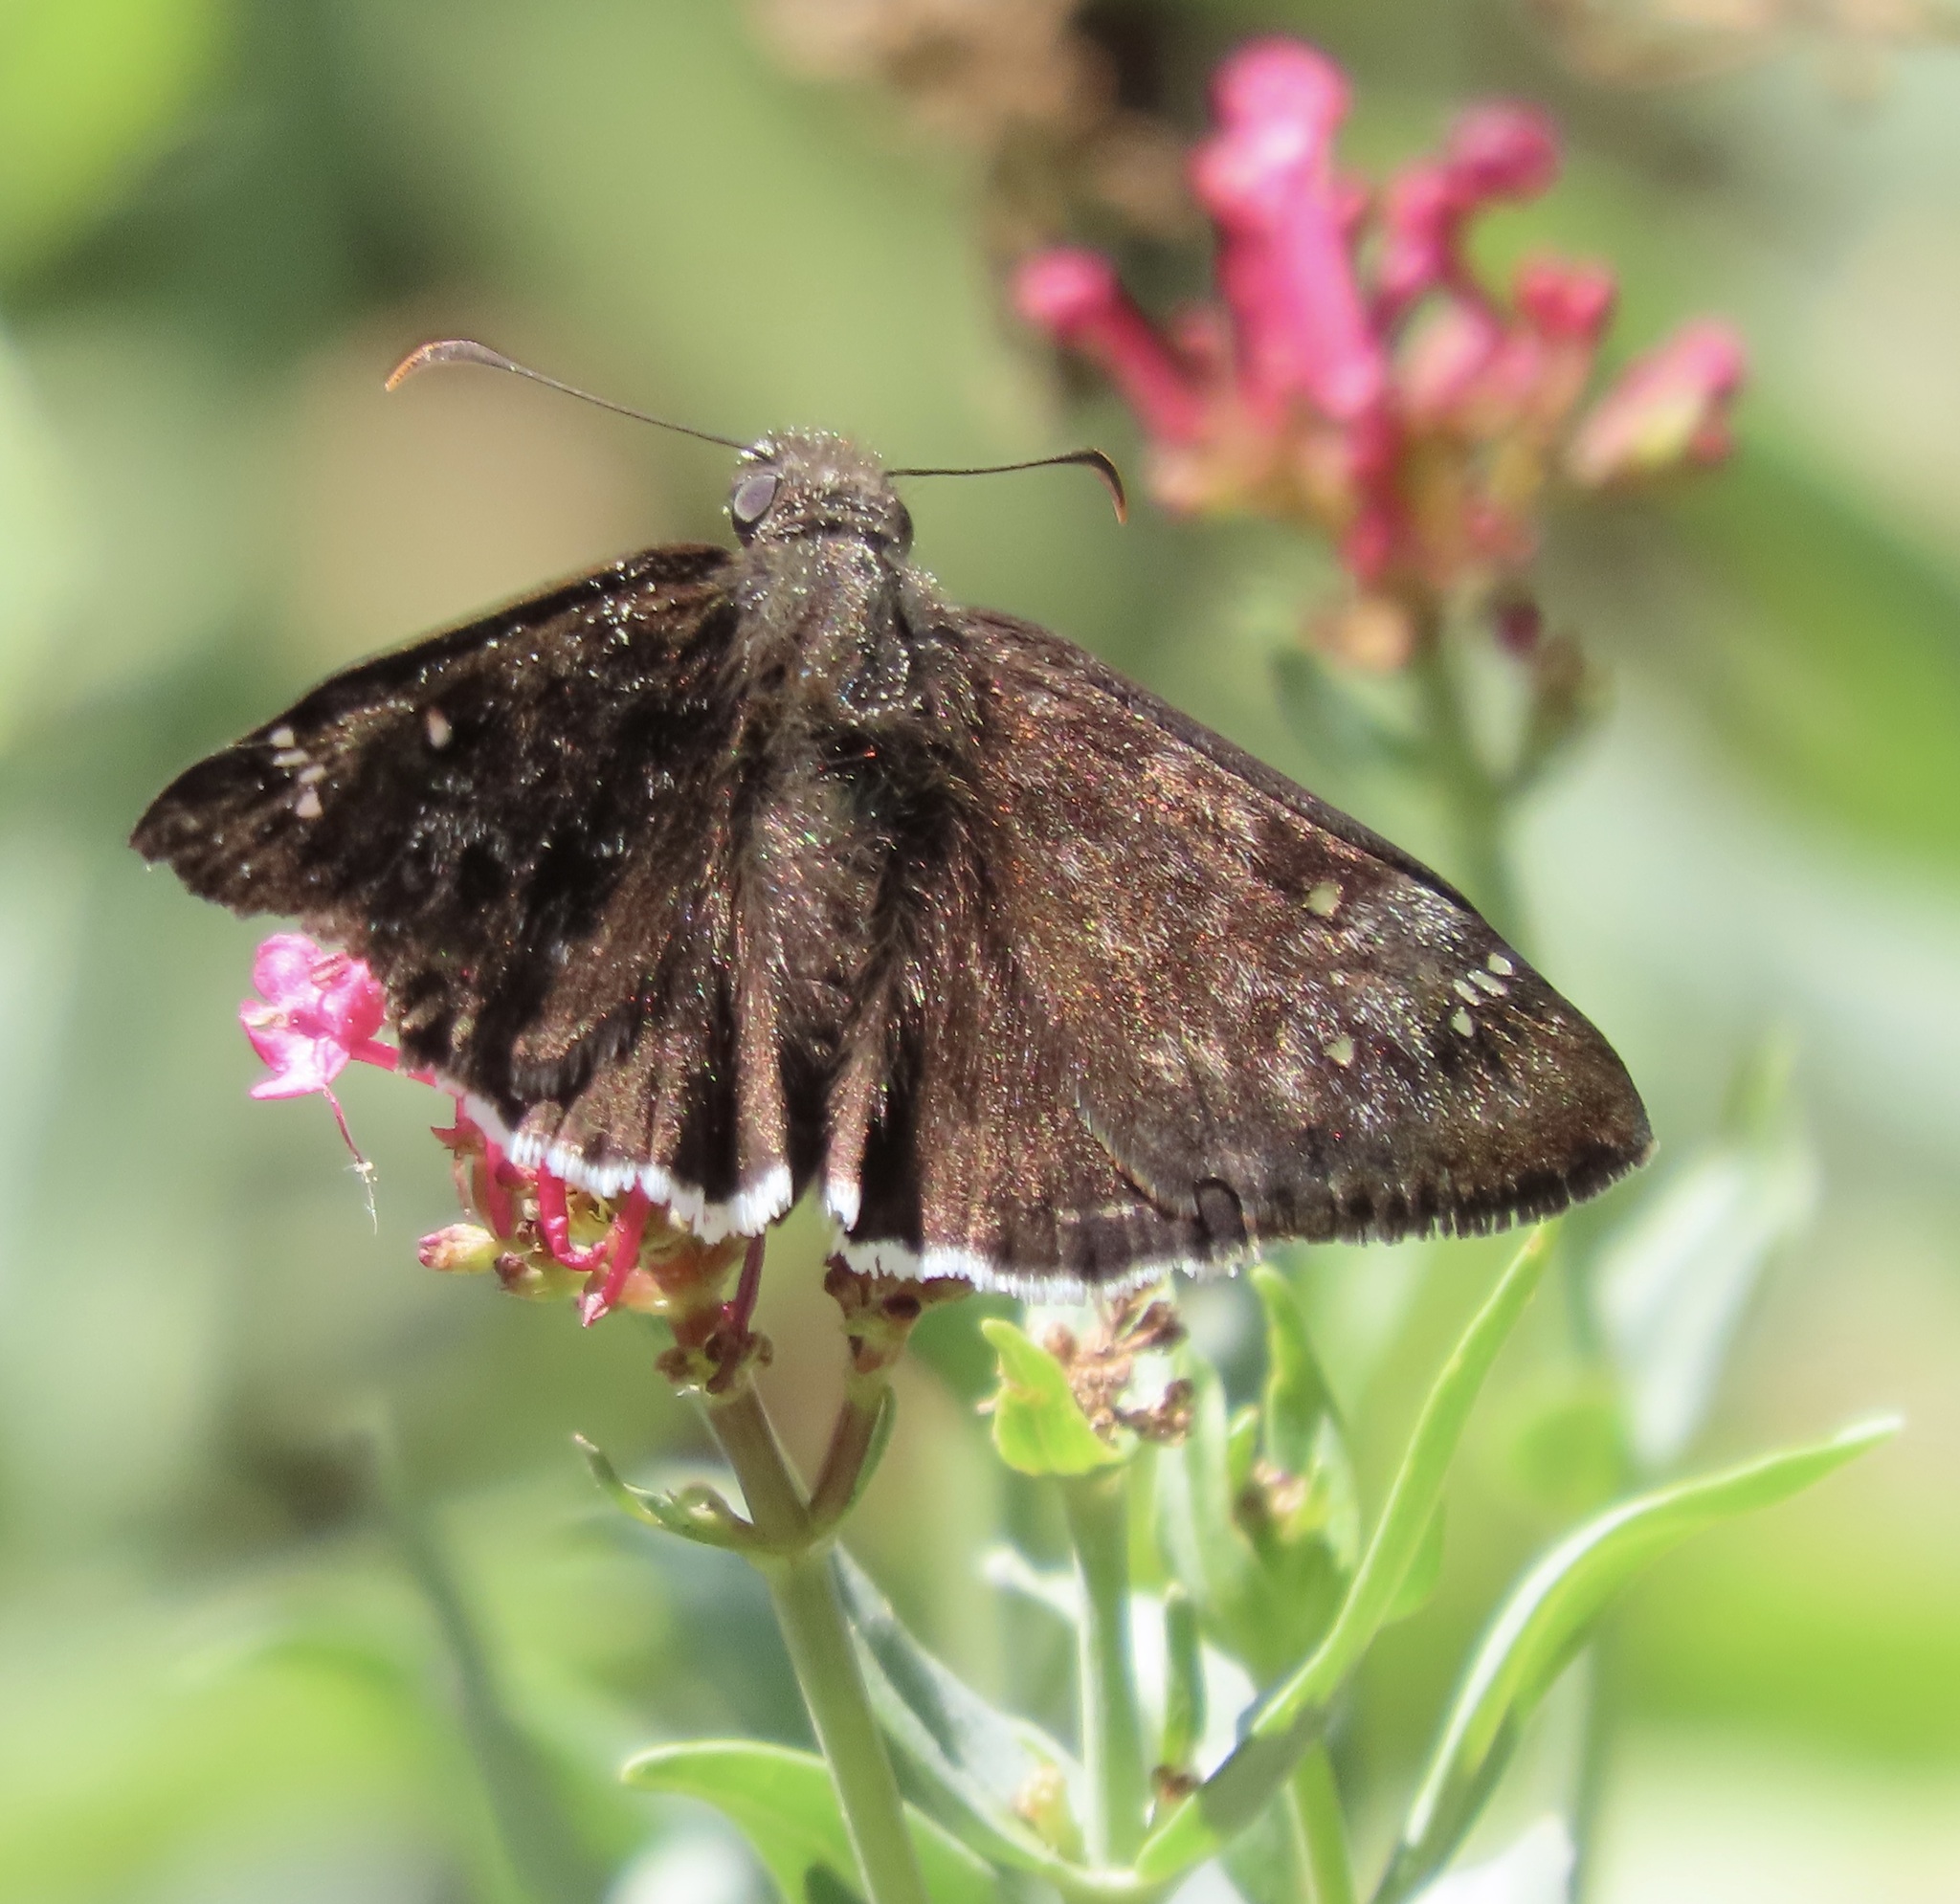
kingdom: Animalia
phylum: Arthropoda
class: Insecta
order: Lepidoptera
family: Hesperiidae
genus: Erynnis
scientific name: Erynnis tristis
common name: Mournful duskywing
